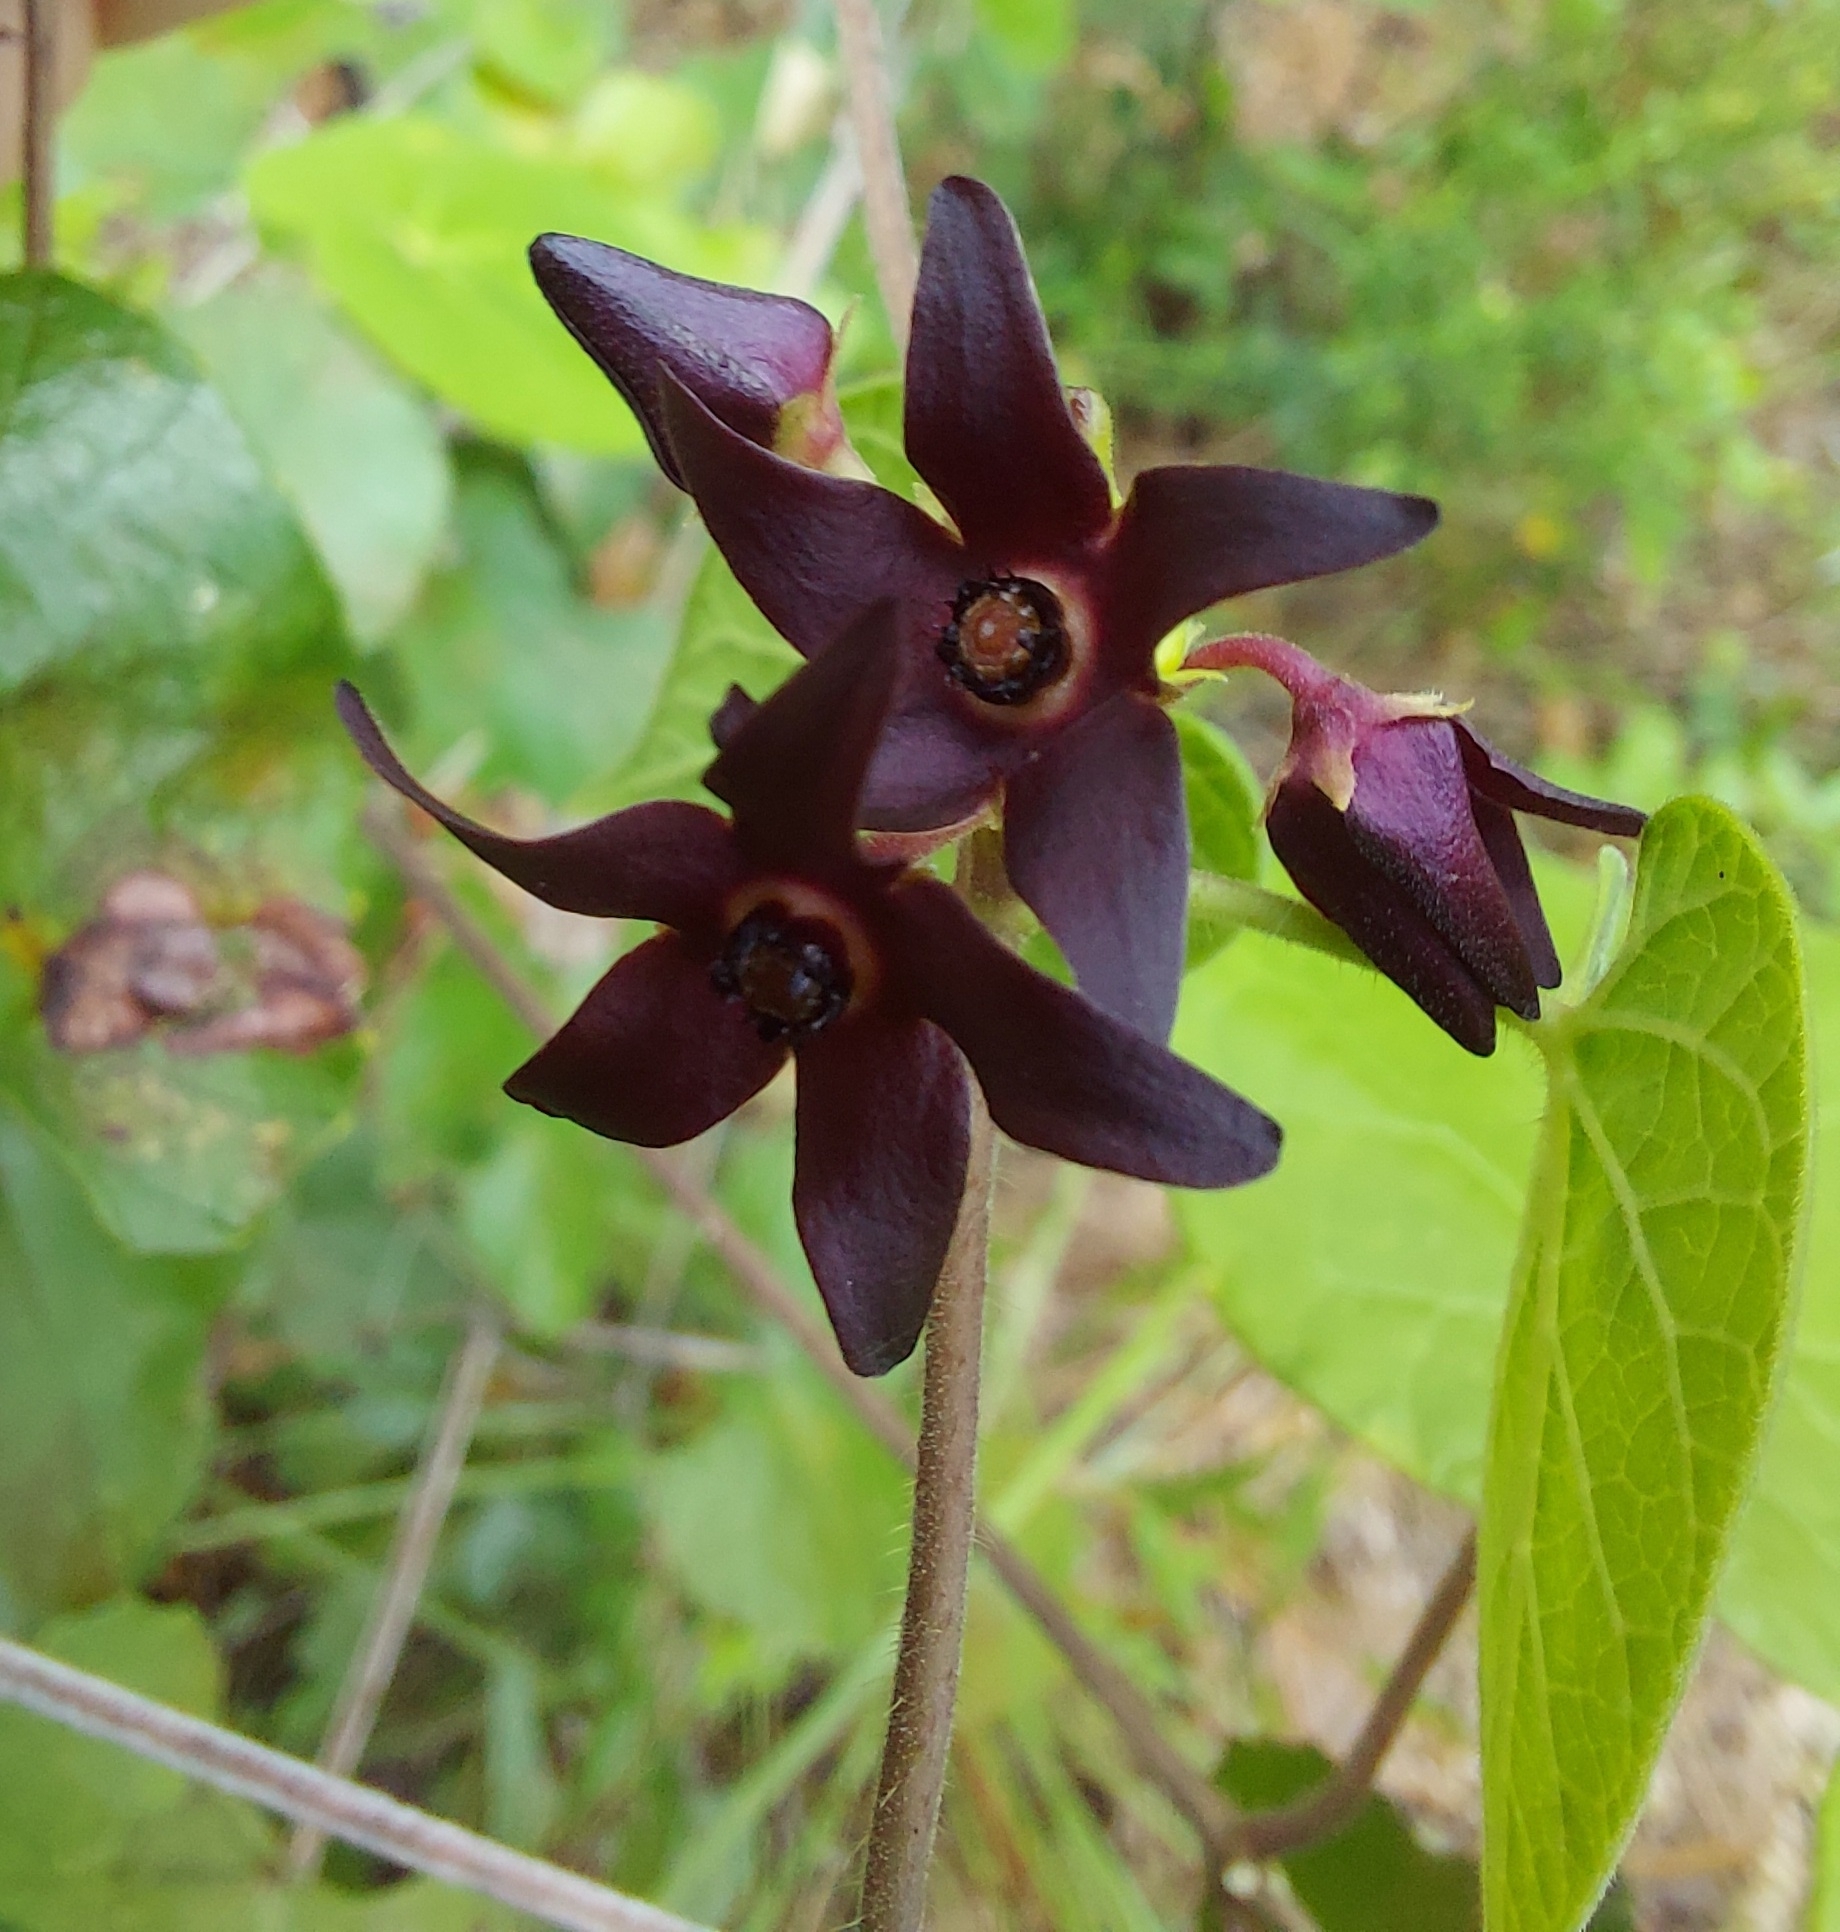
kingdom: Plantae
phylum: Tracheophyta
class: Magnoliopsida
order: Gentianales
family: Apocynaceae
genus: Matelea
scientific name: Matelea floridana
